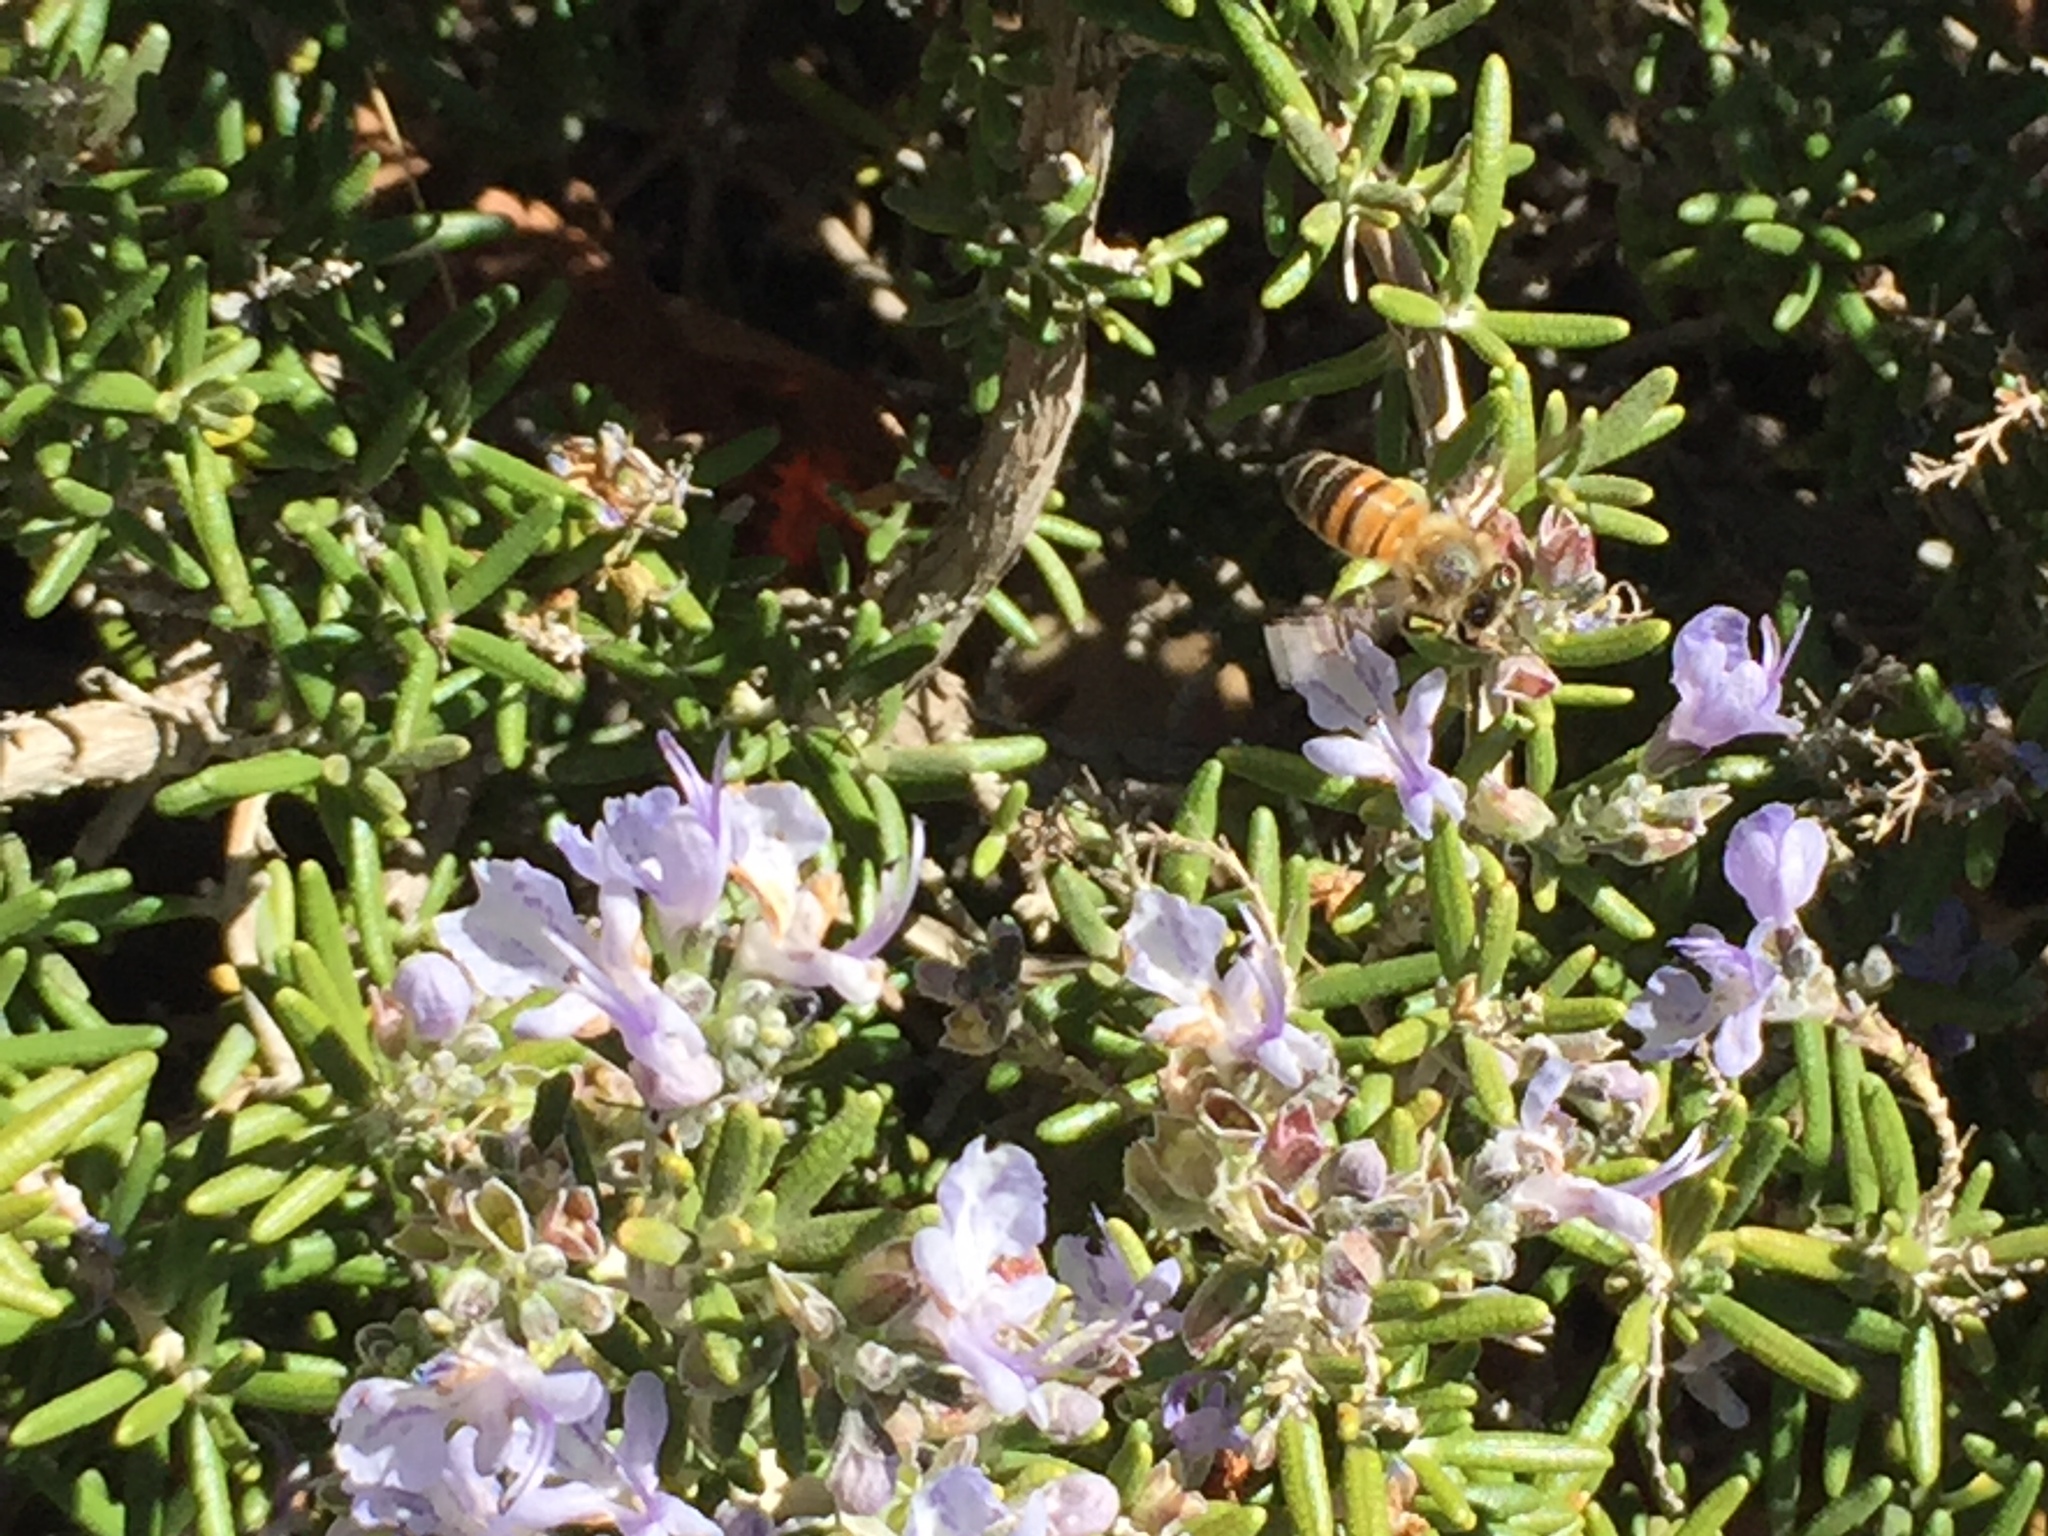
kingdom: Animalia
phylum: Arthropoda
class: Insecta
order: Hymenoptera
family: Apidae
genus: Apis
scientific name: Apis mellifera
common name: Honey bee
